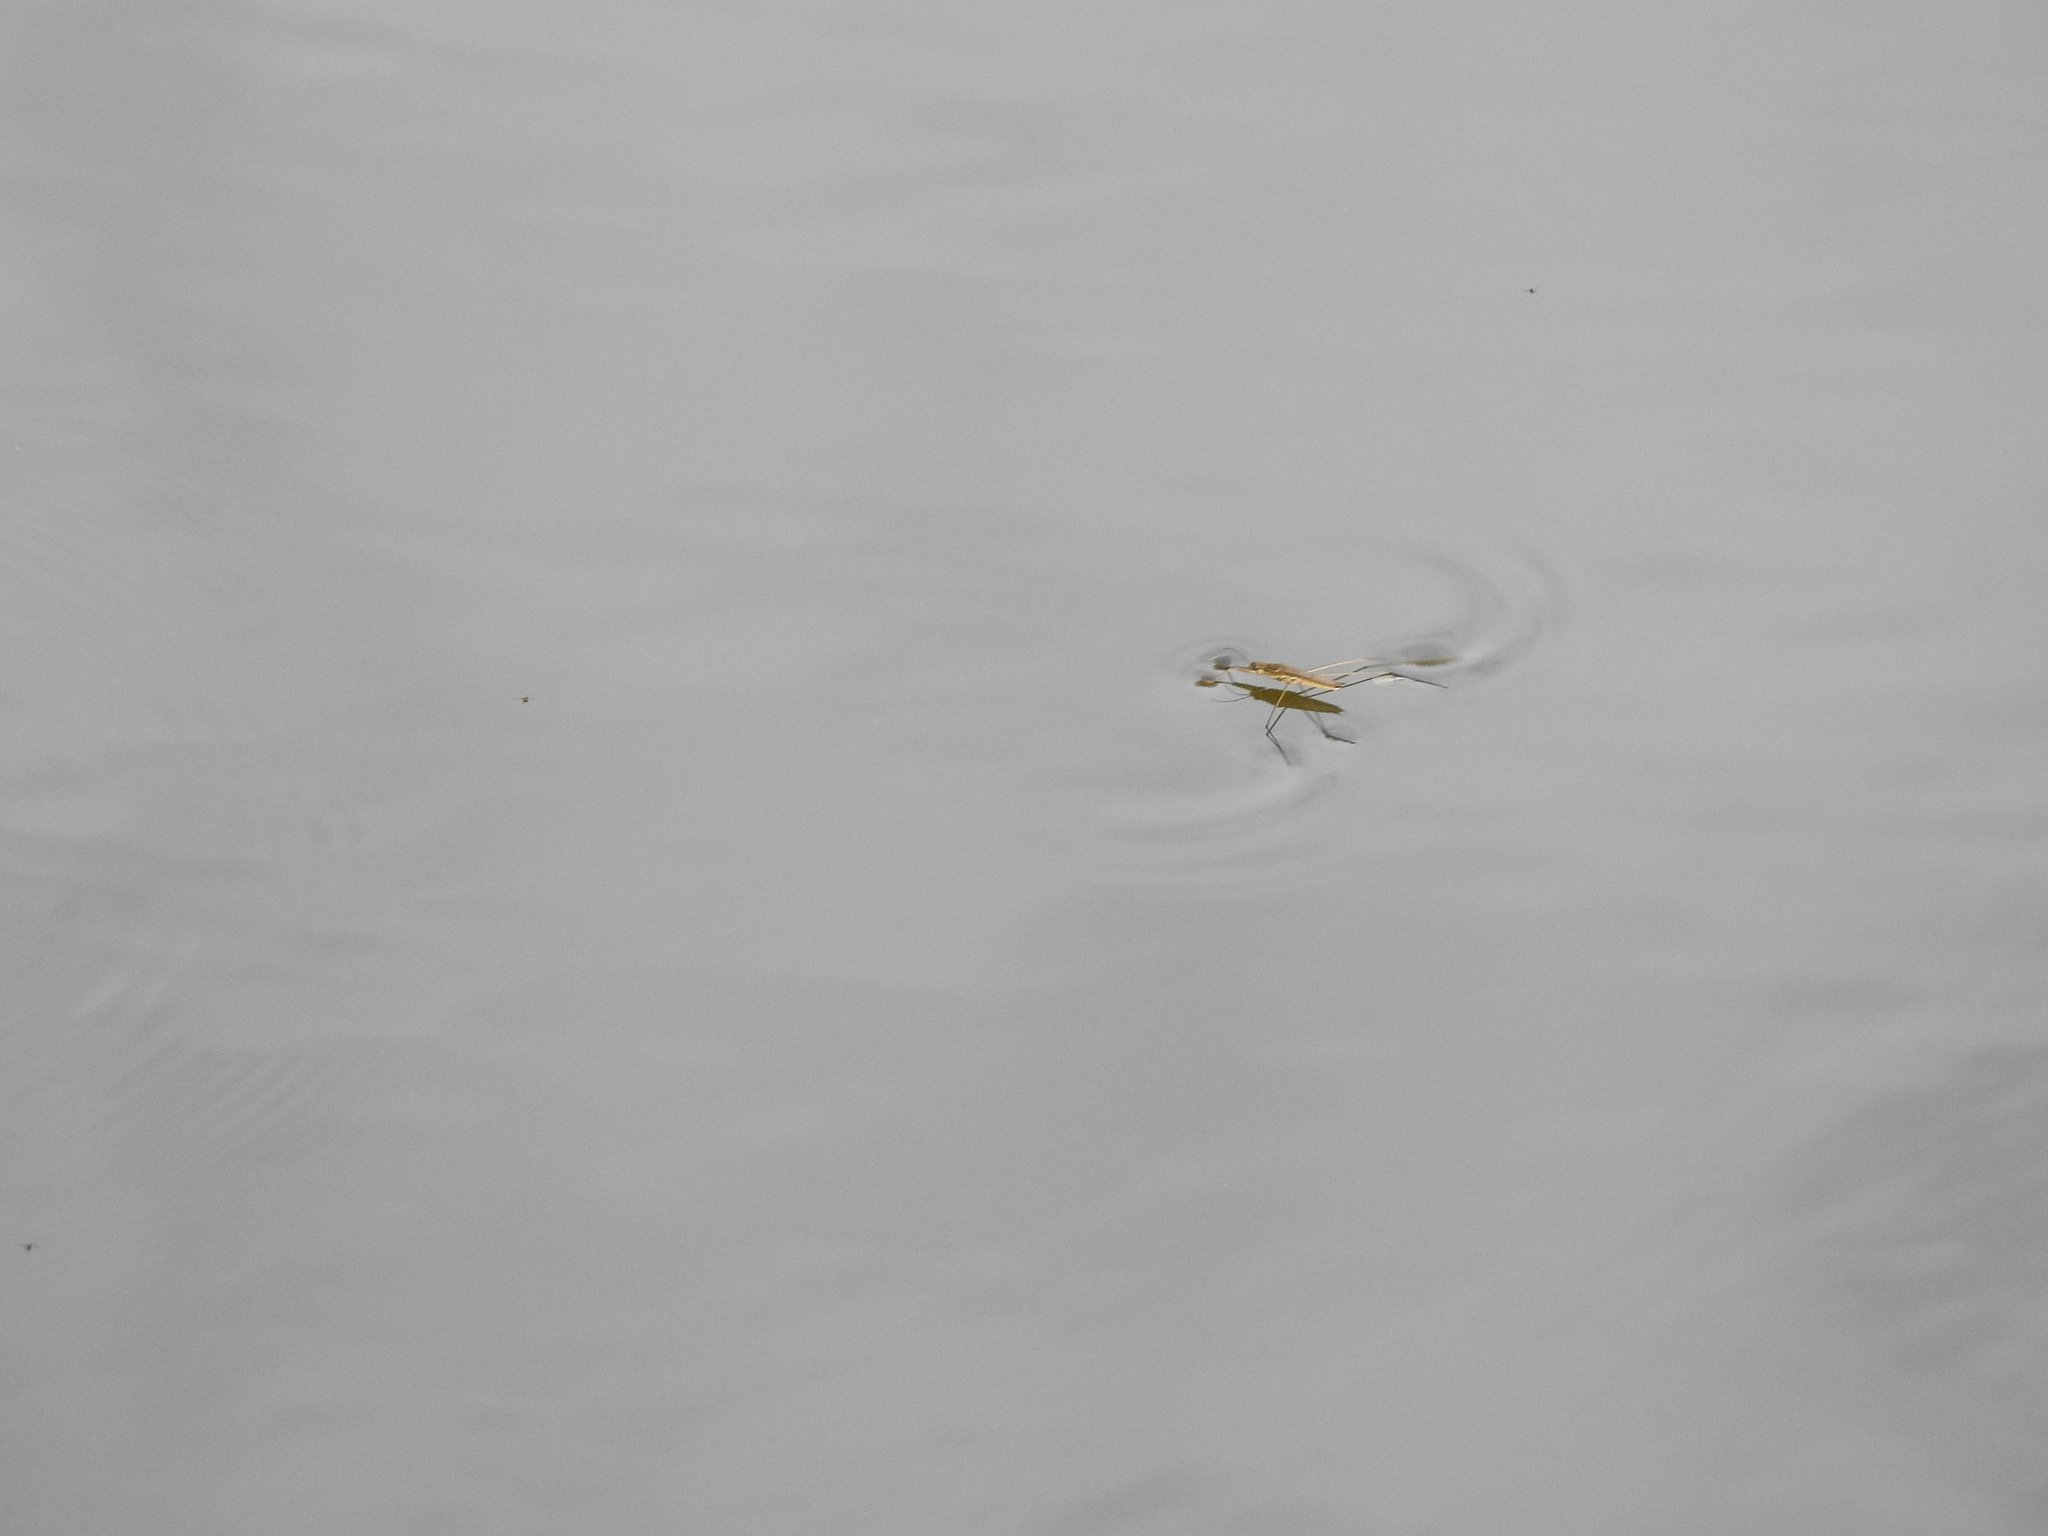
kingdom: Animalia
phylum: Arthropoda
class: Insecta
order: Hemiptera
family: Gerridae
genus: Aquarius
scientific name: Aquarius paludum
